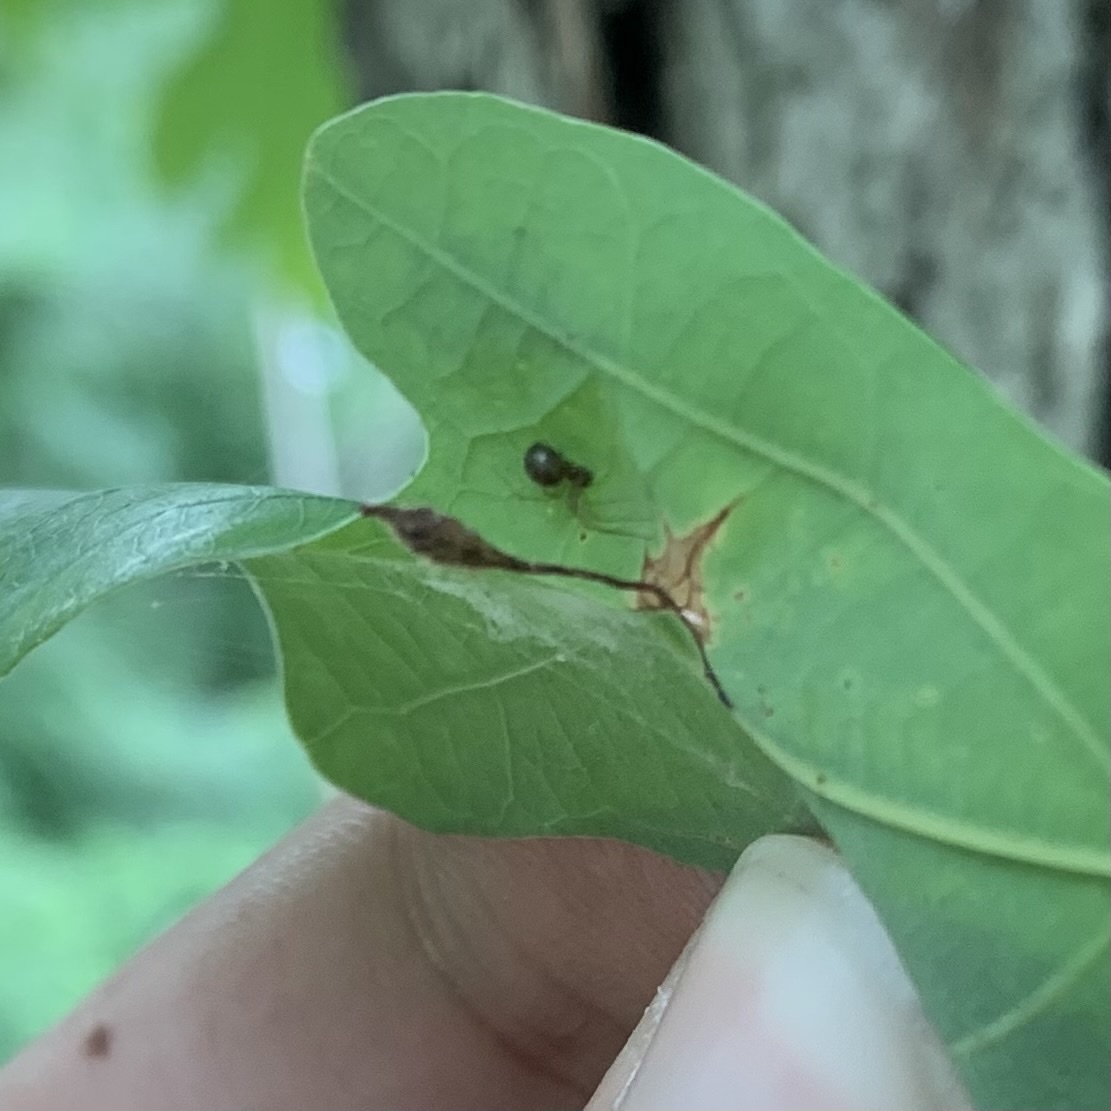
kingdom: Animalia
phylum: Arthropoda
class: Insecta
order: Hymenoptera
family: Cynipidae
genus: Andricus
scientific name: Andricus
